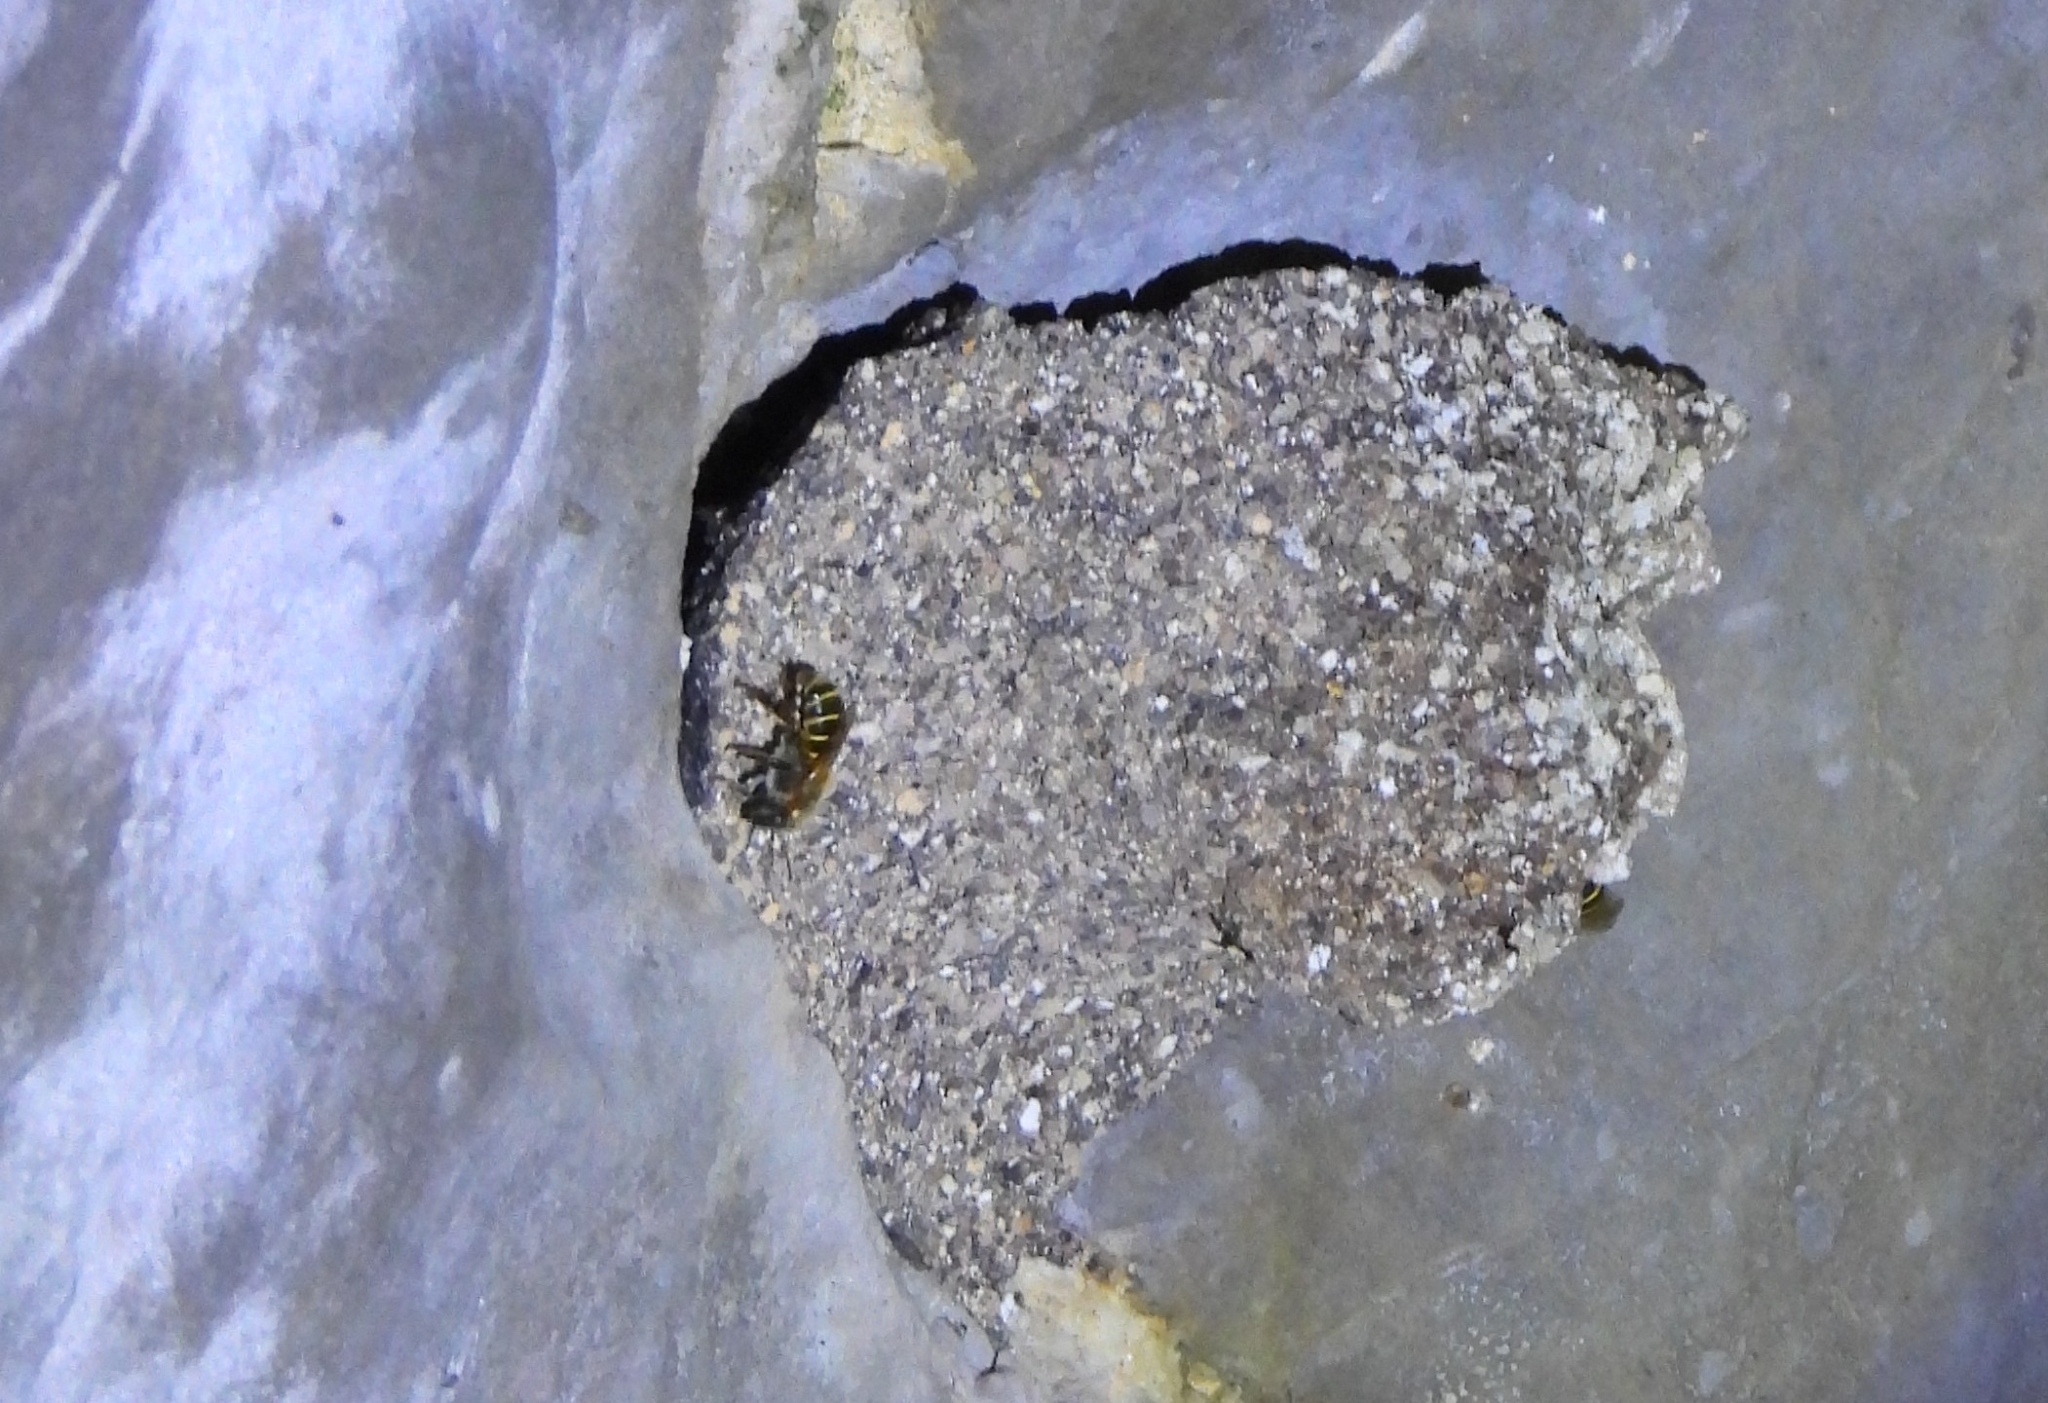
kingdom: Animalia
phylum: Arthropoda
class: Insecta
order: Hymenoptera
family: Apidae
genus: Melipona
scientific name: Melipona beecheii
